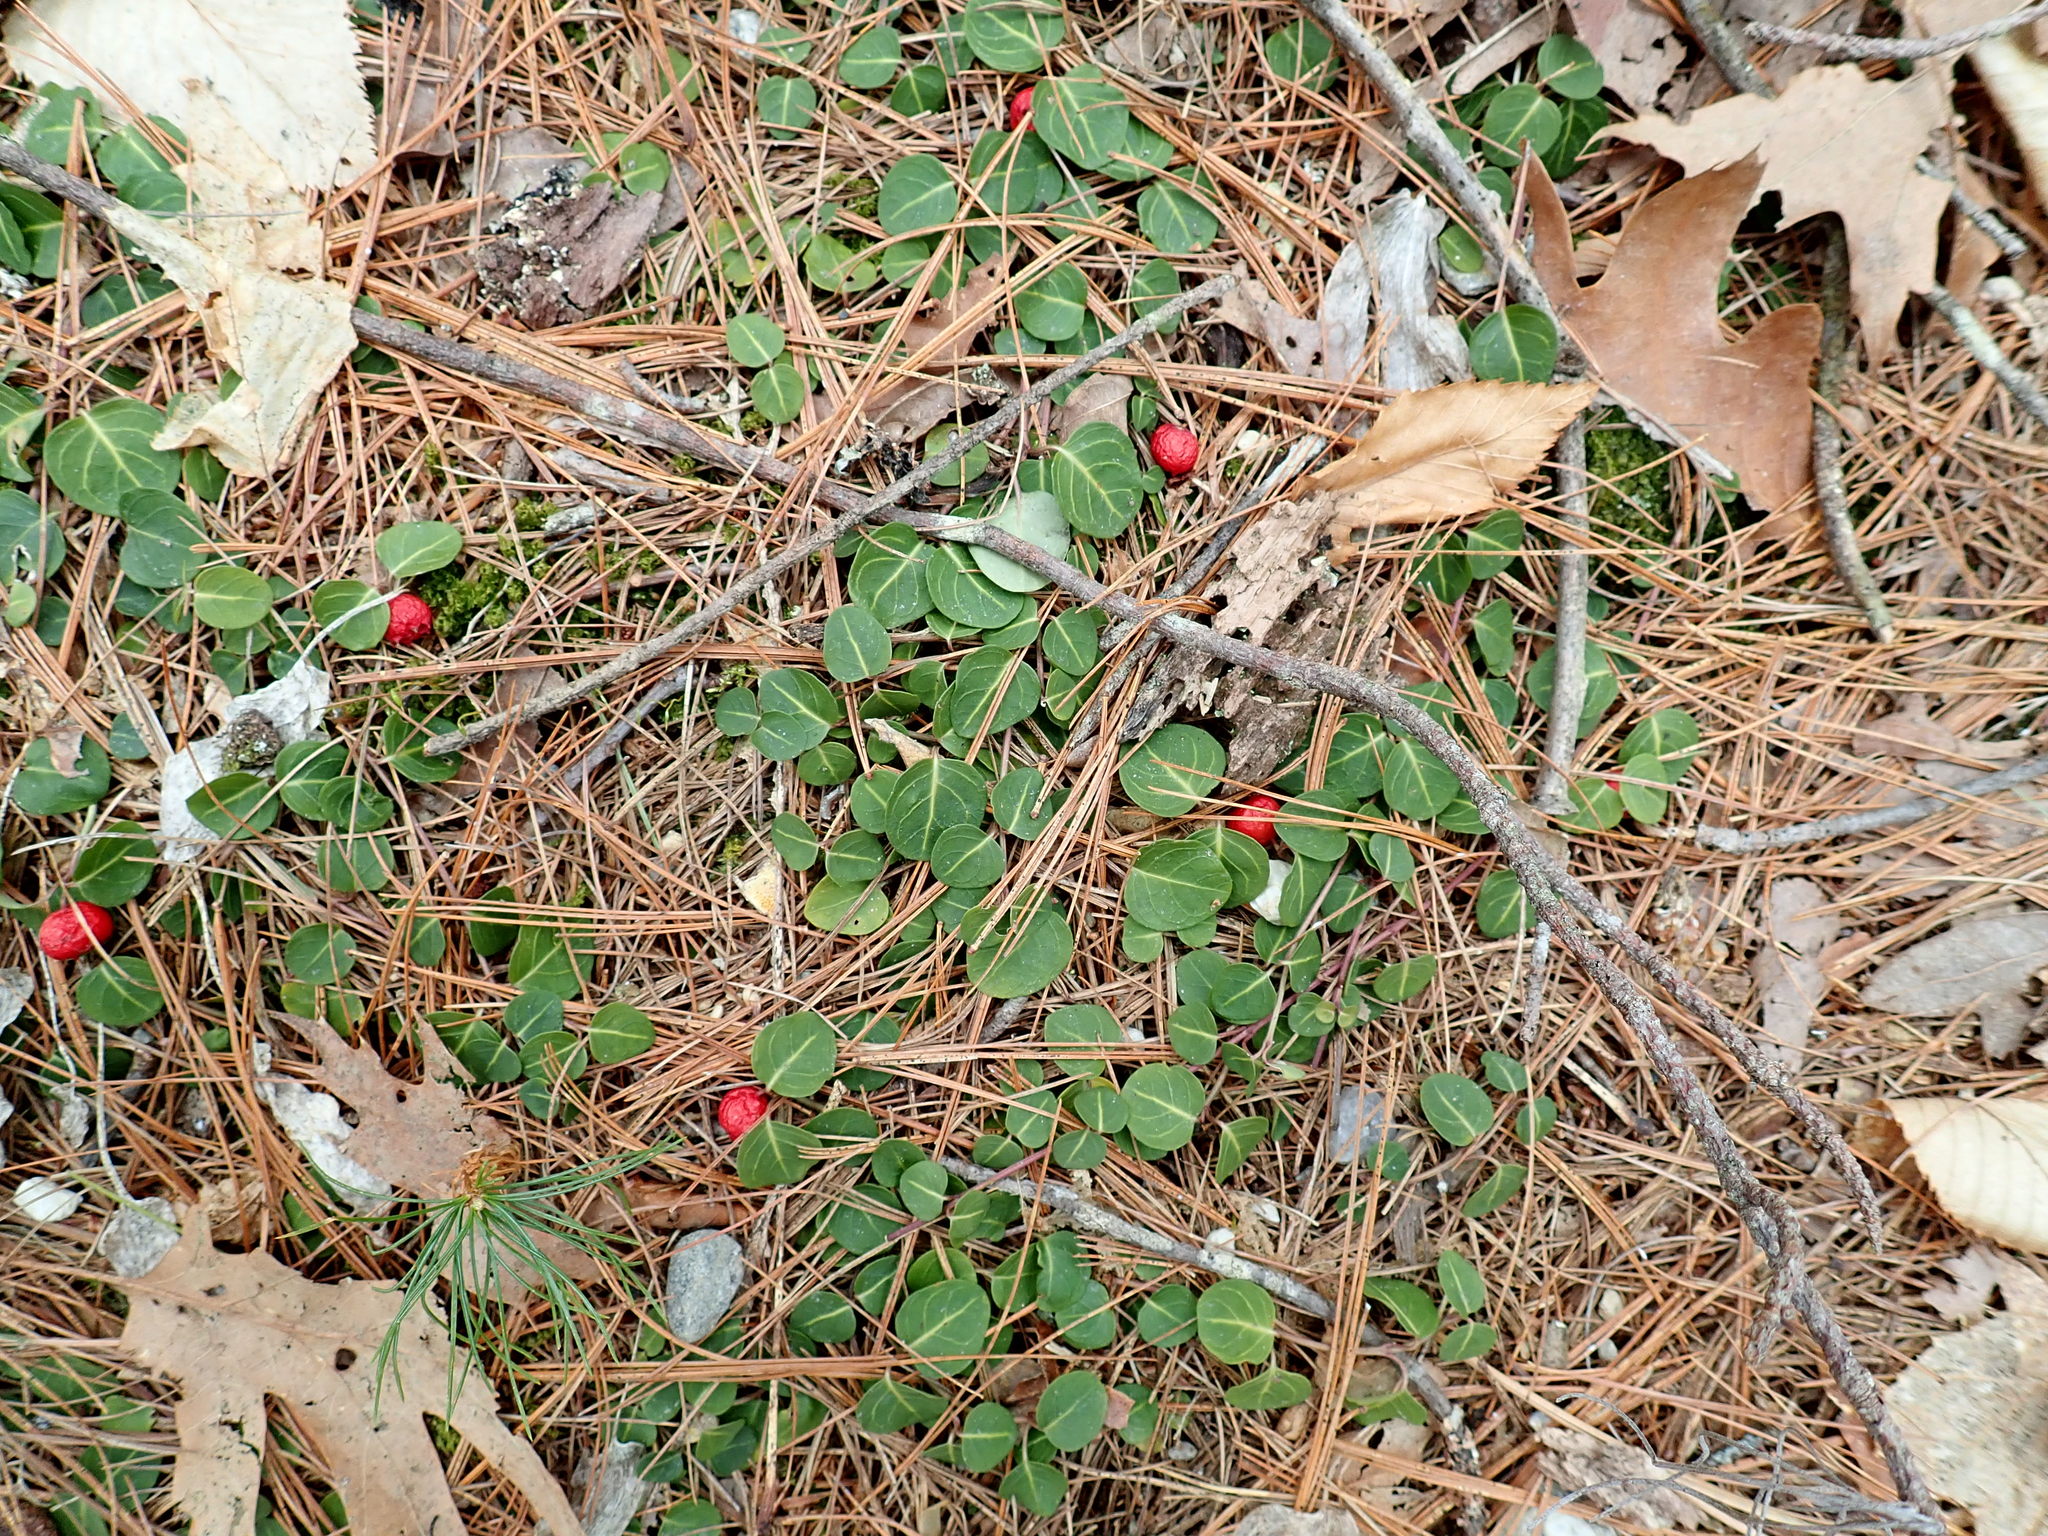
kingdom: Plantae
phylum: Tracheophyta
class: Magnoliopsida
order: Gentianales
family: Rubiaceae
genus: Mitchella
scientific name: Mitchella repens
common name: Partridge-berry
